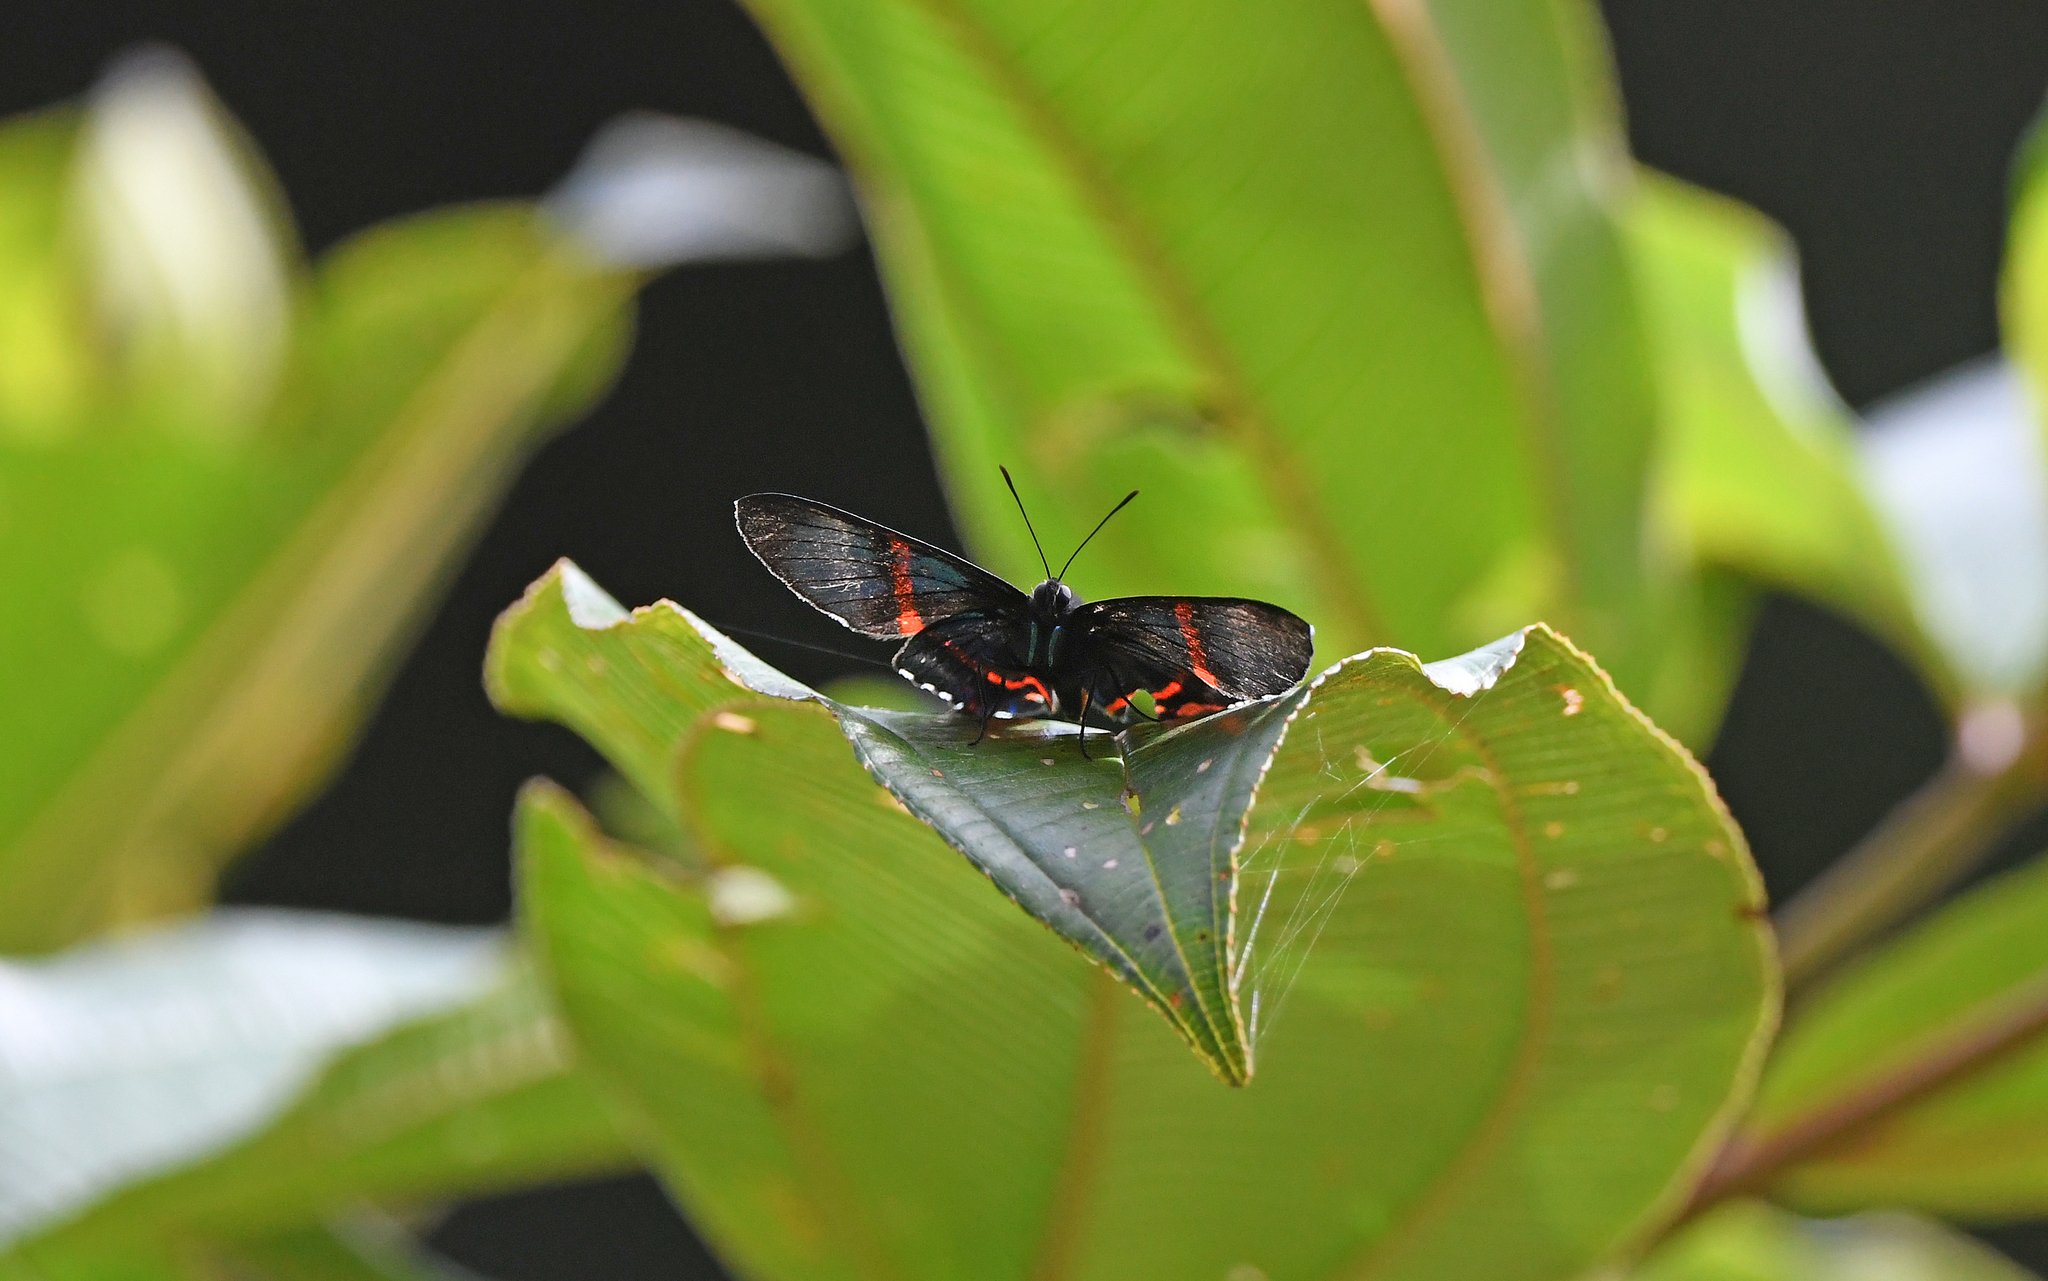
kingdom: Animalia
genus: Ancyluris
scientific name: Ancyluris aulestes
